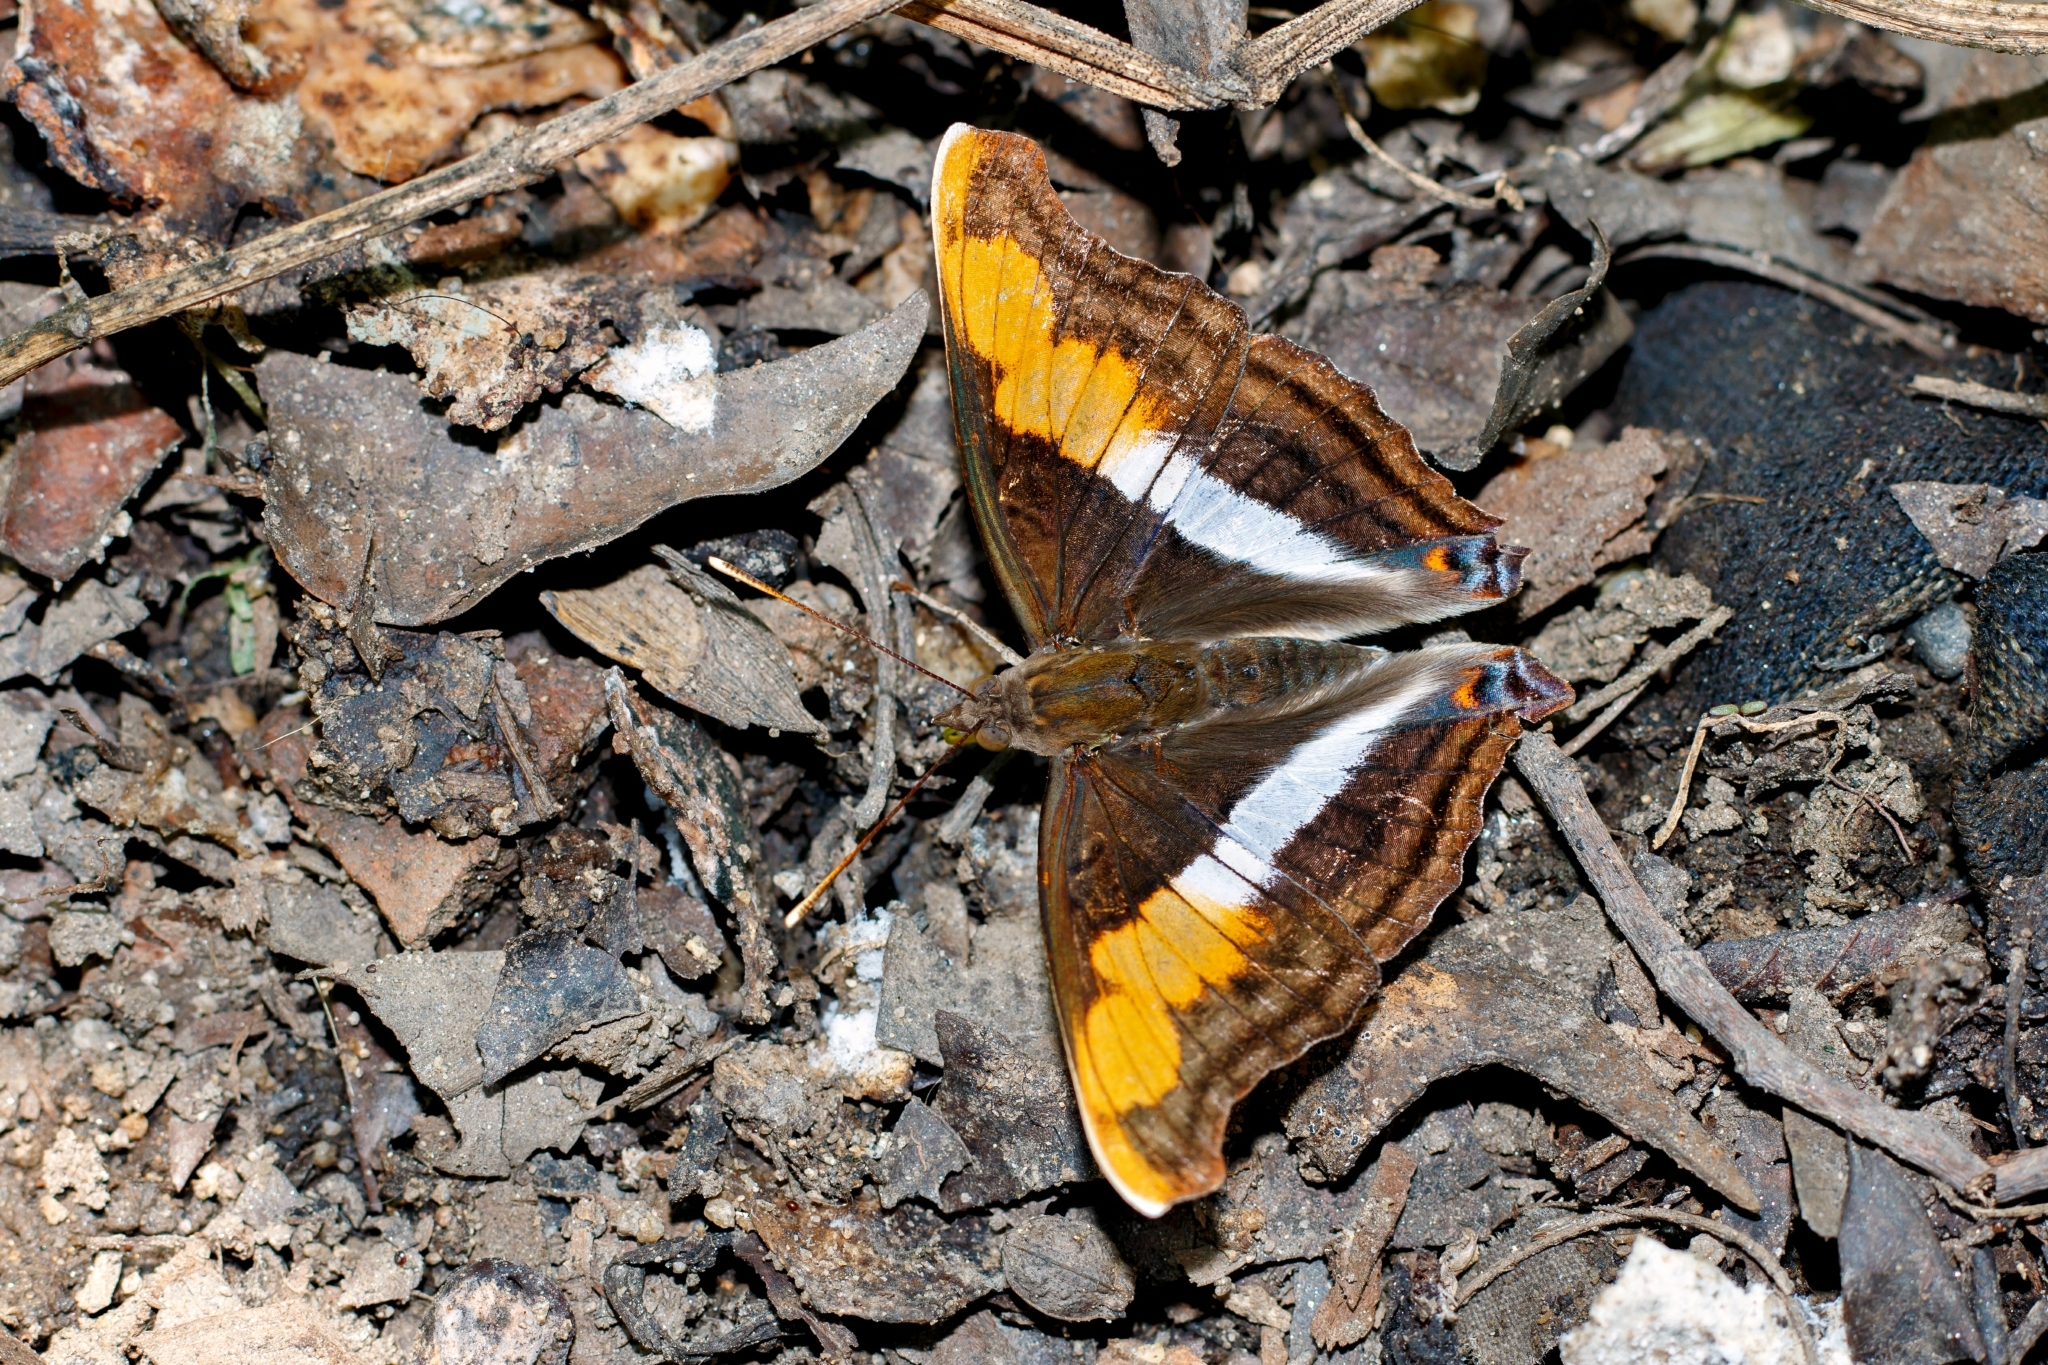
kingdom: Animalia
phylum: Arthropoda
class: Insecta
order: Lepidoptera
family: Nymphalidae
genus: Doxocopa
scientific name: Doxocopa laure
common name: Silver emperor
